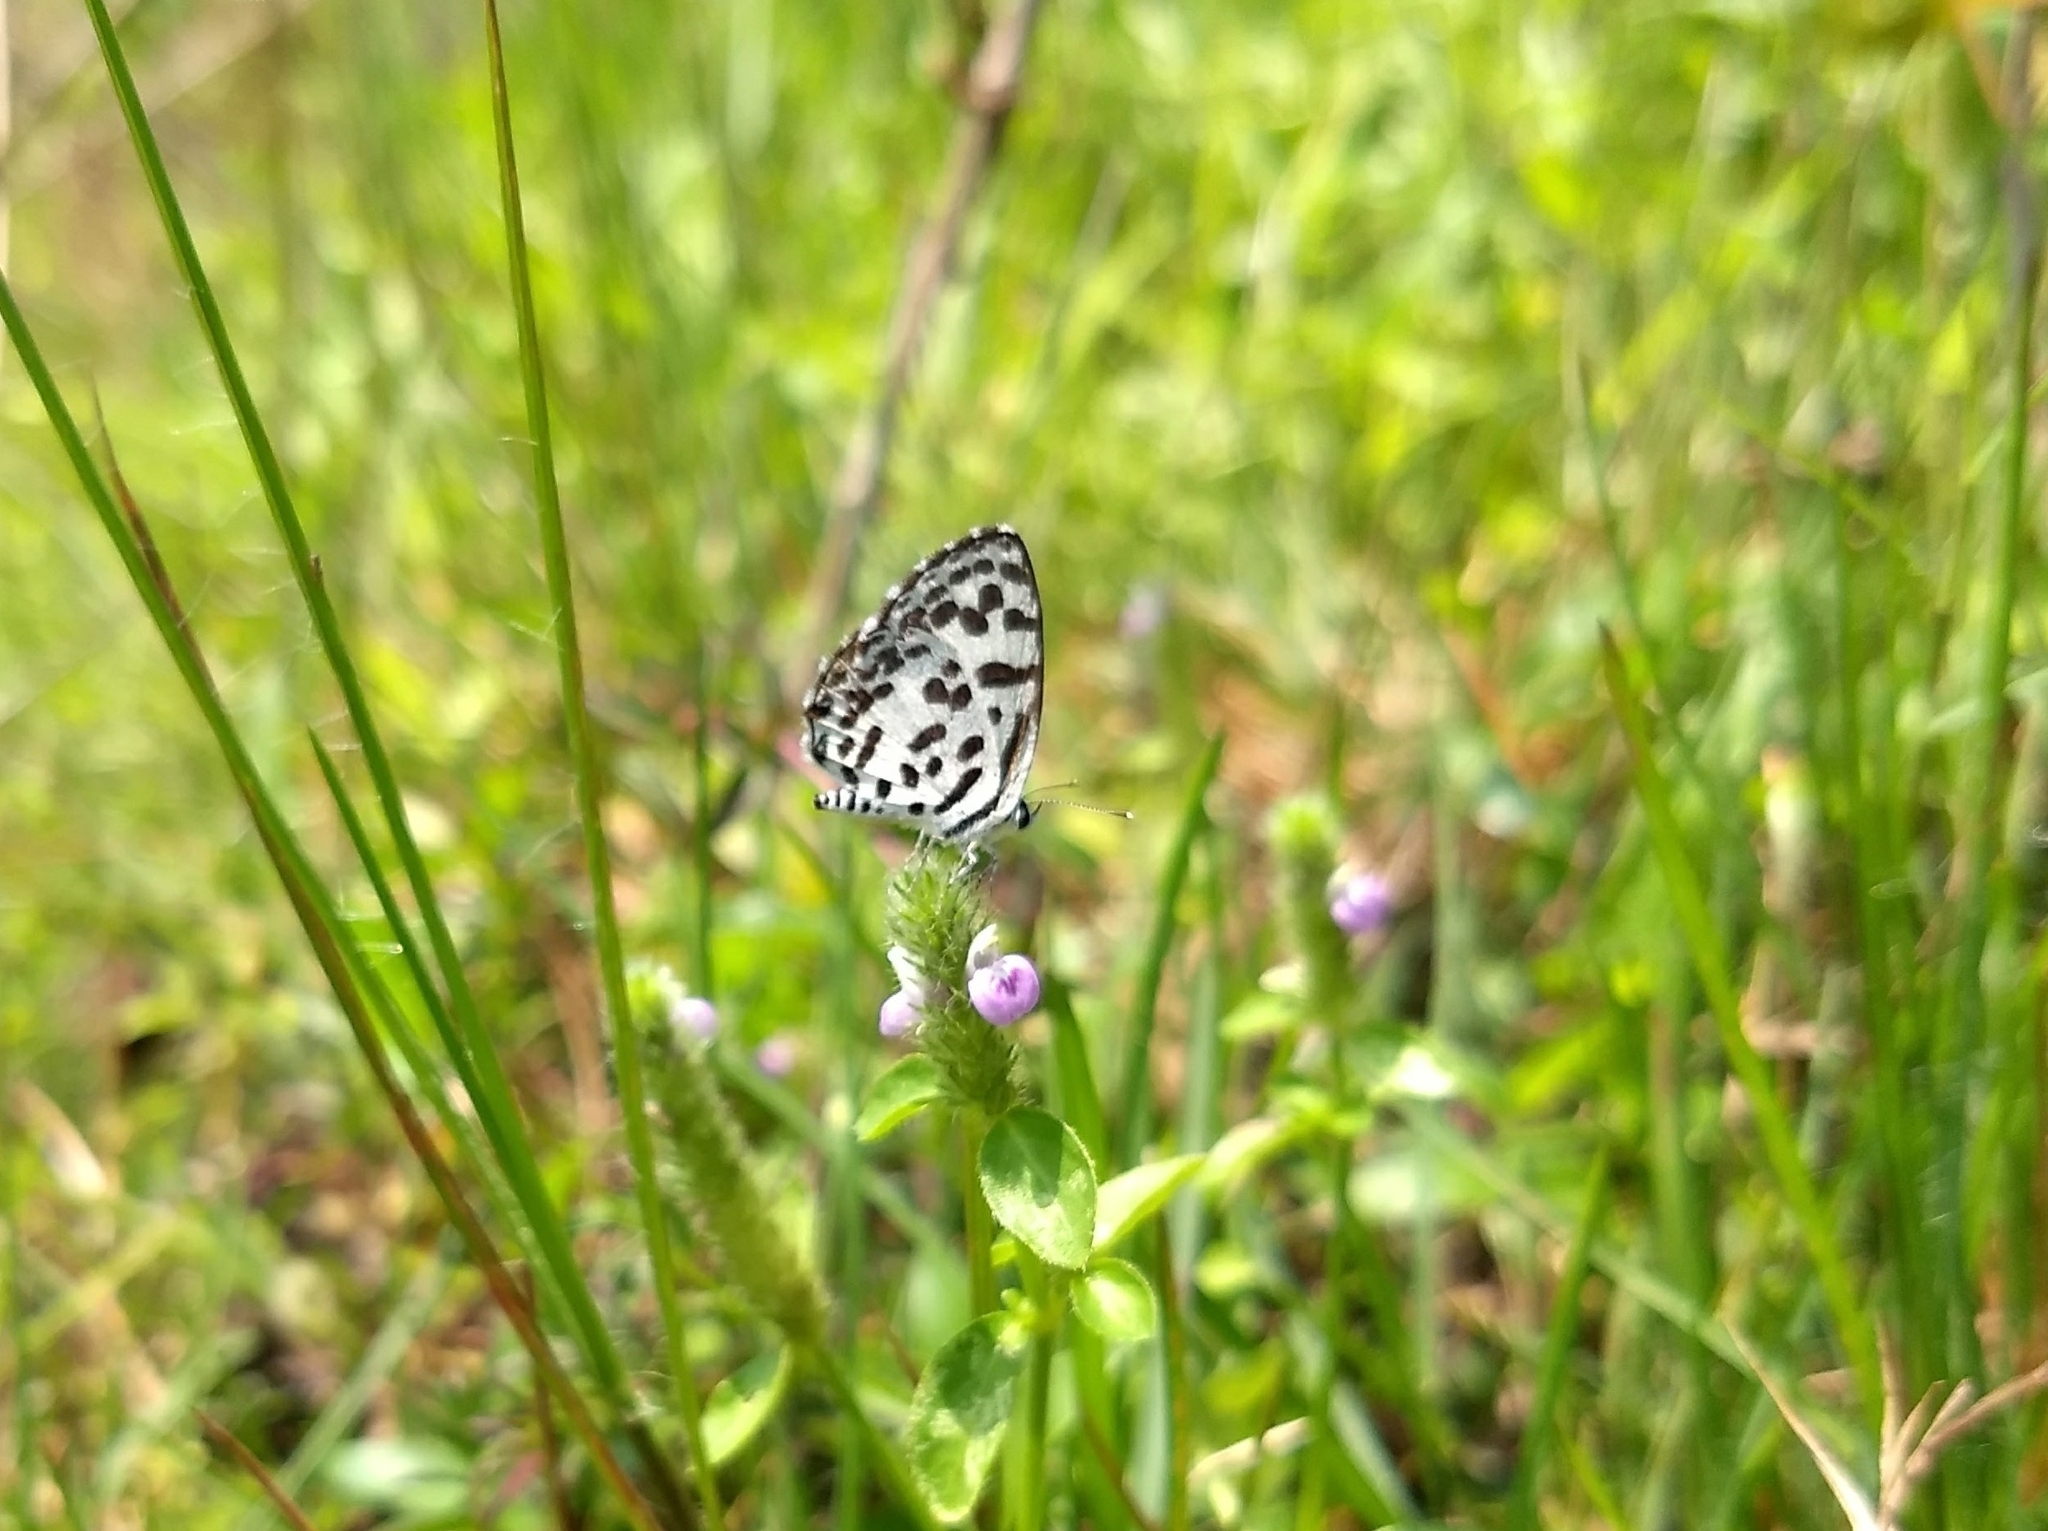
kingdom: Animalia
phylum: Arthropoda
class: Insecta
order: Lepidoptera
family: Lycaenidae
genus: Castalius
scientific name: Castalius rosimon
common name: Common pierrot
